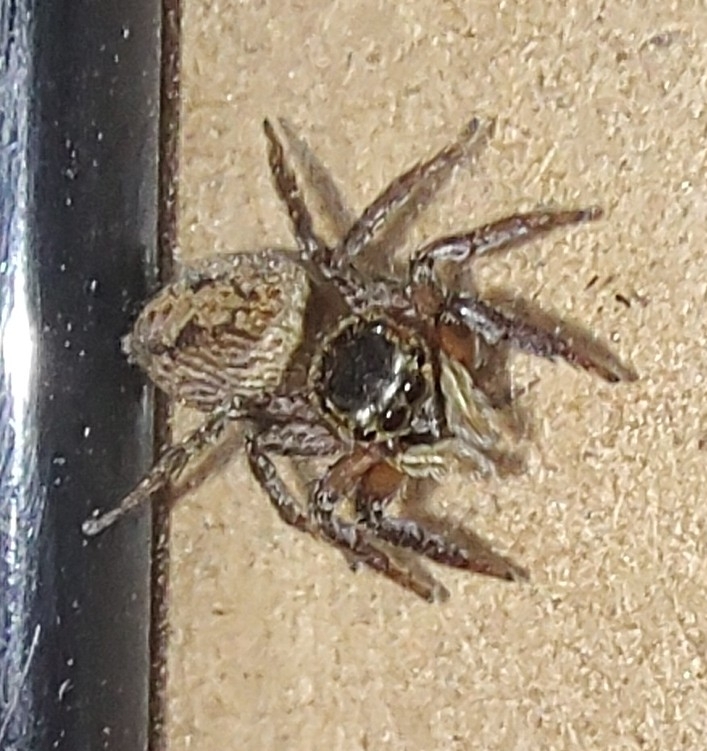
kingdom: Animalia
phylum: Arthropoda
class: Arachnida
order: Araneae
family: Salticidae
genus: Hasarius
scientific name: Hasarius adansoni
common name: Jumping spider
